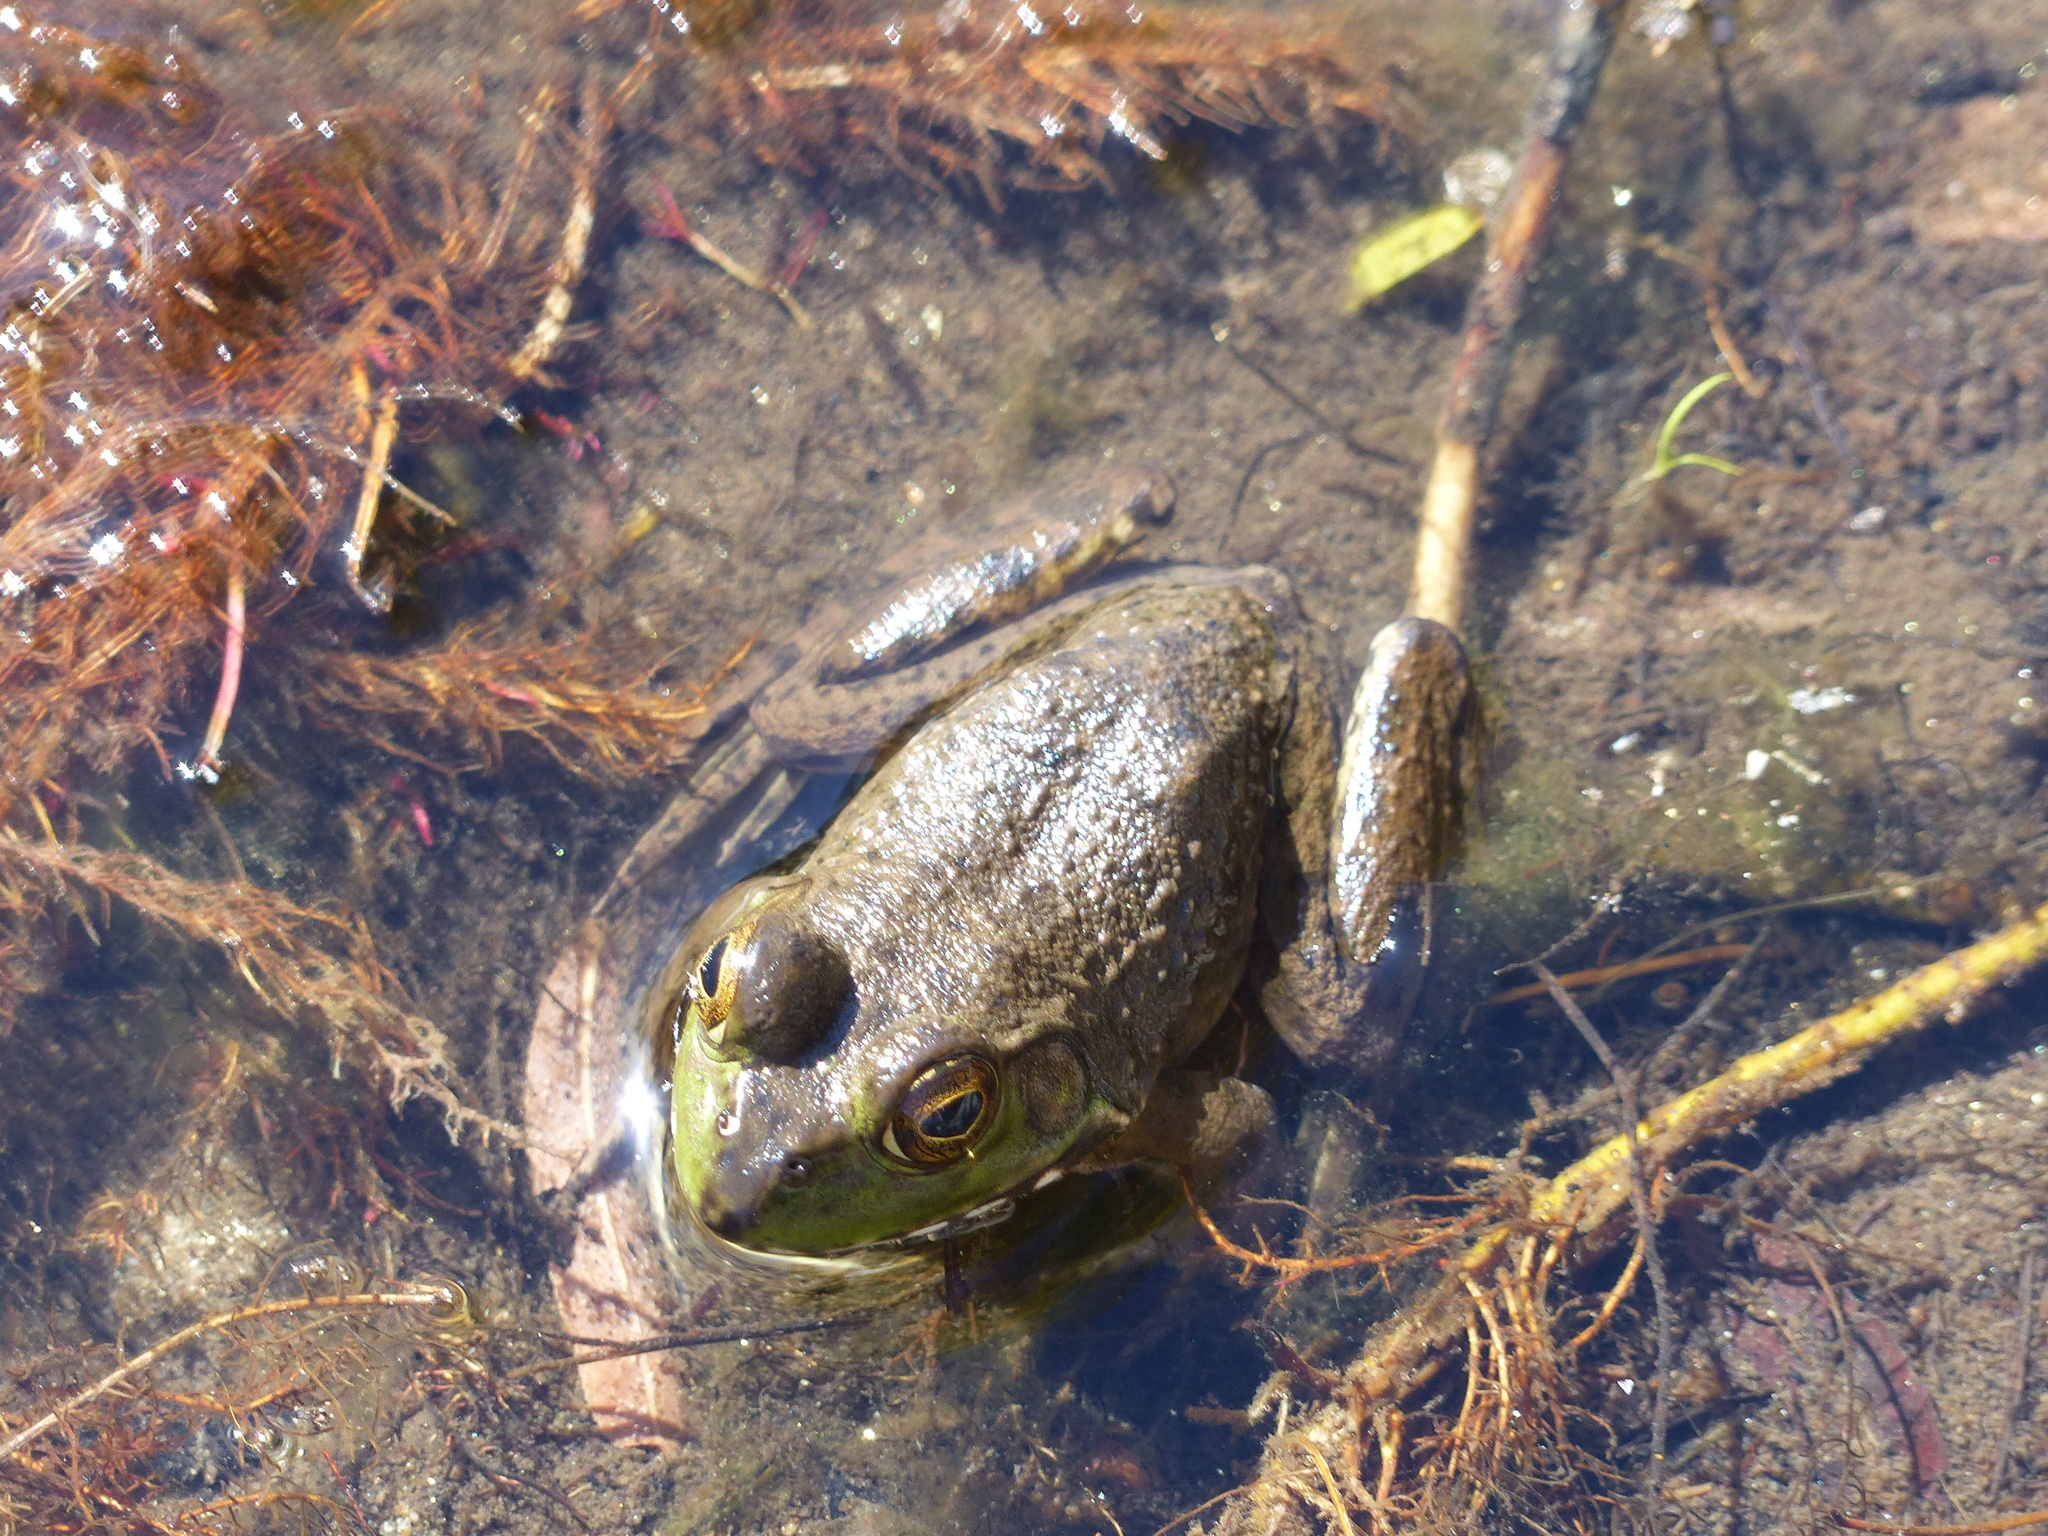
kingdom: Animalia
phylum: Chordata
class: Amphibia
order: Anura
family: Ranidae
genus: Lithobates
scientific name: Lithobates catesbeianus
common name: American bullfrog
